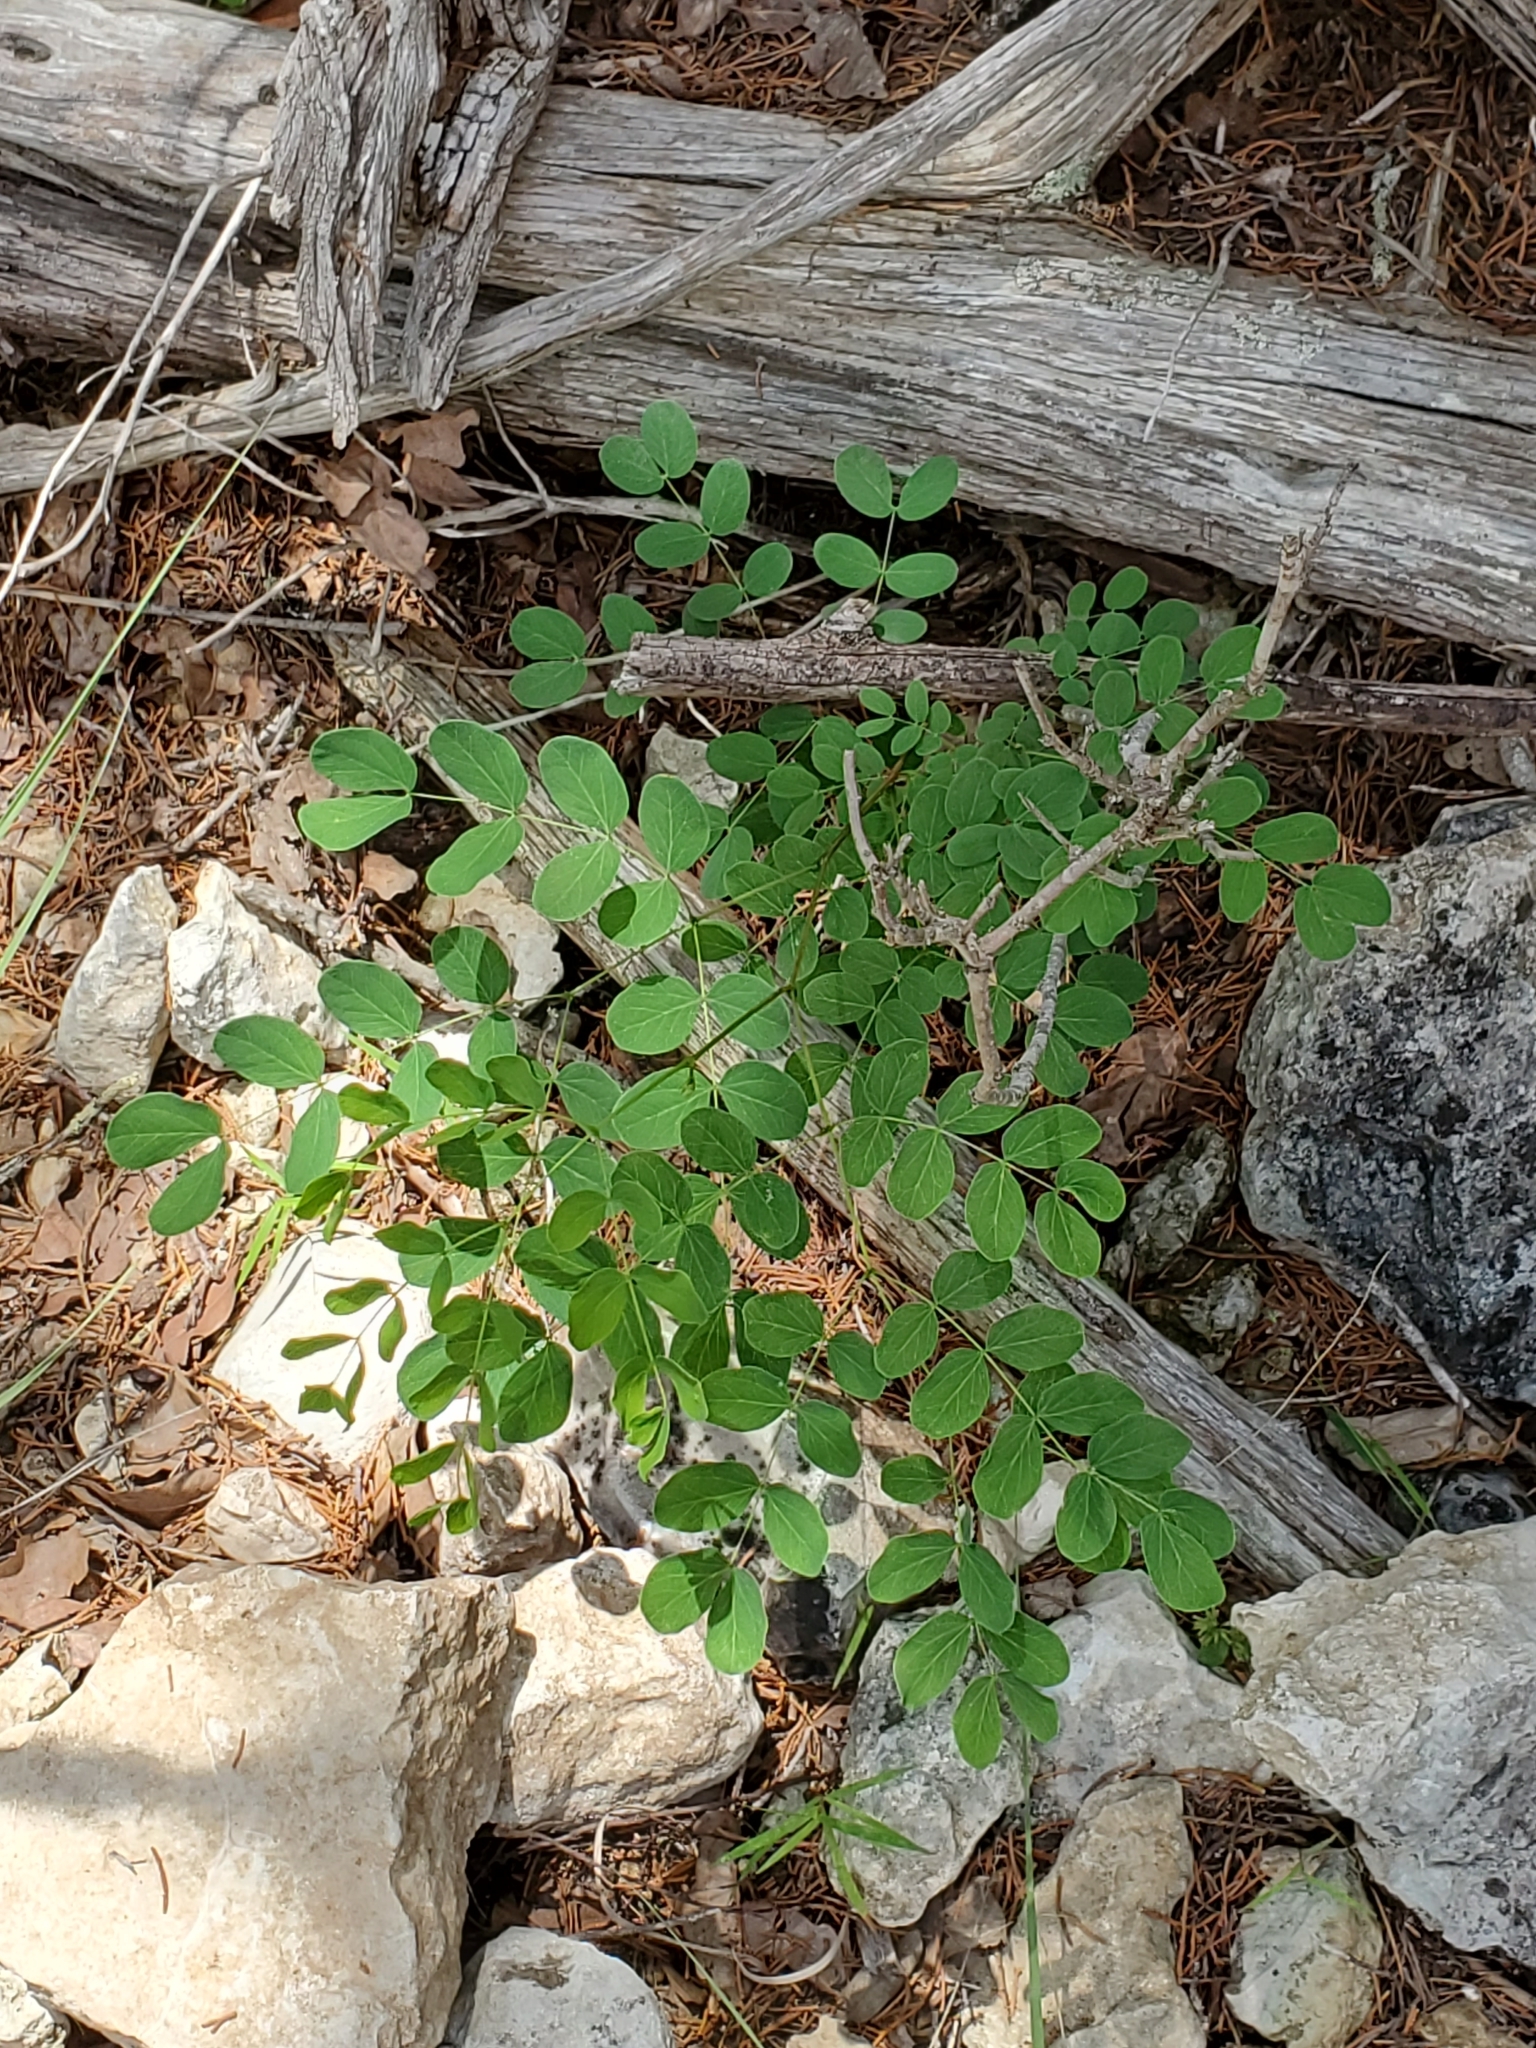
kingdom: Plantae
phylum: Tracheophyta
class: Magnoliopsida
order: Fabales
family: Fabaceae
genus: Leucaena
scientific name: Leucaena retusa
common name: Littleleaf leadtree
